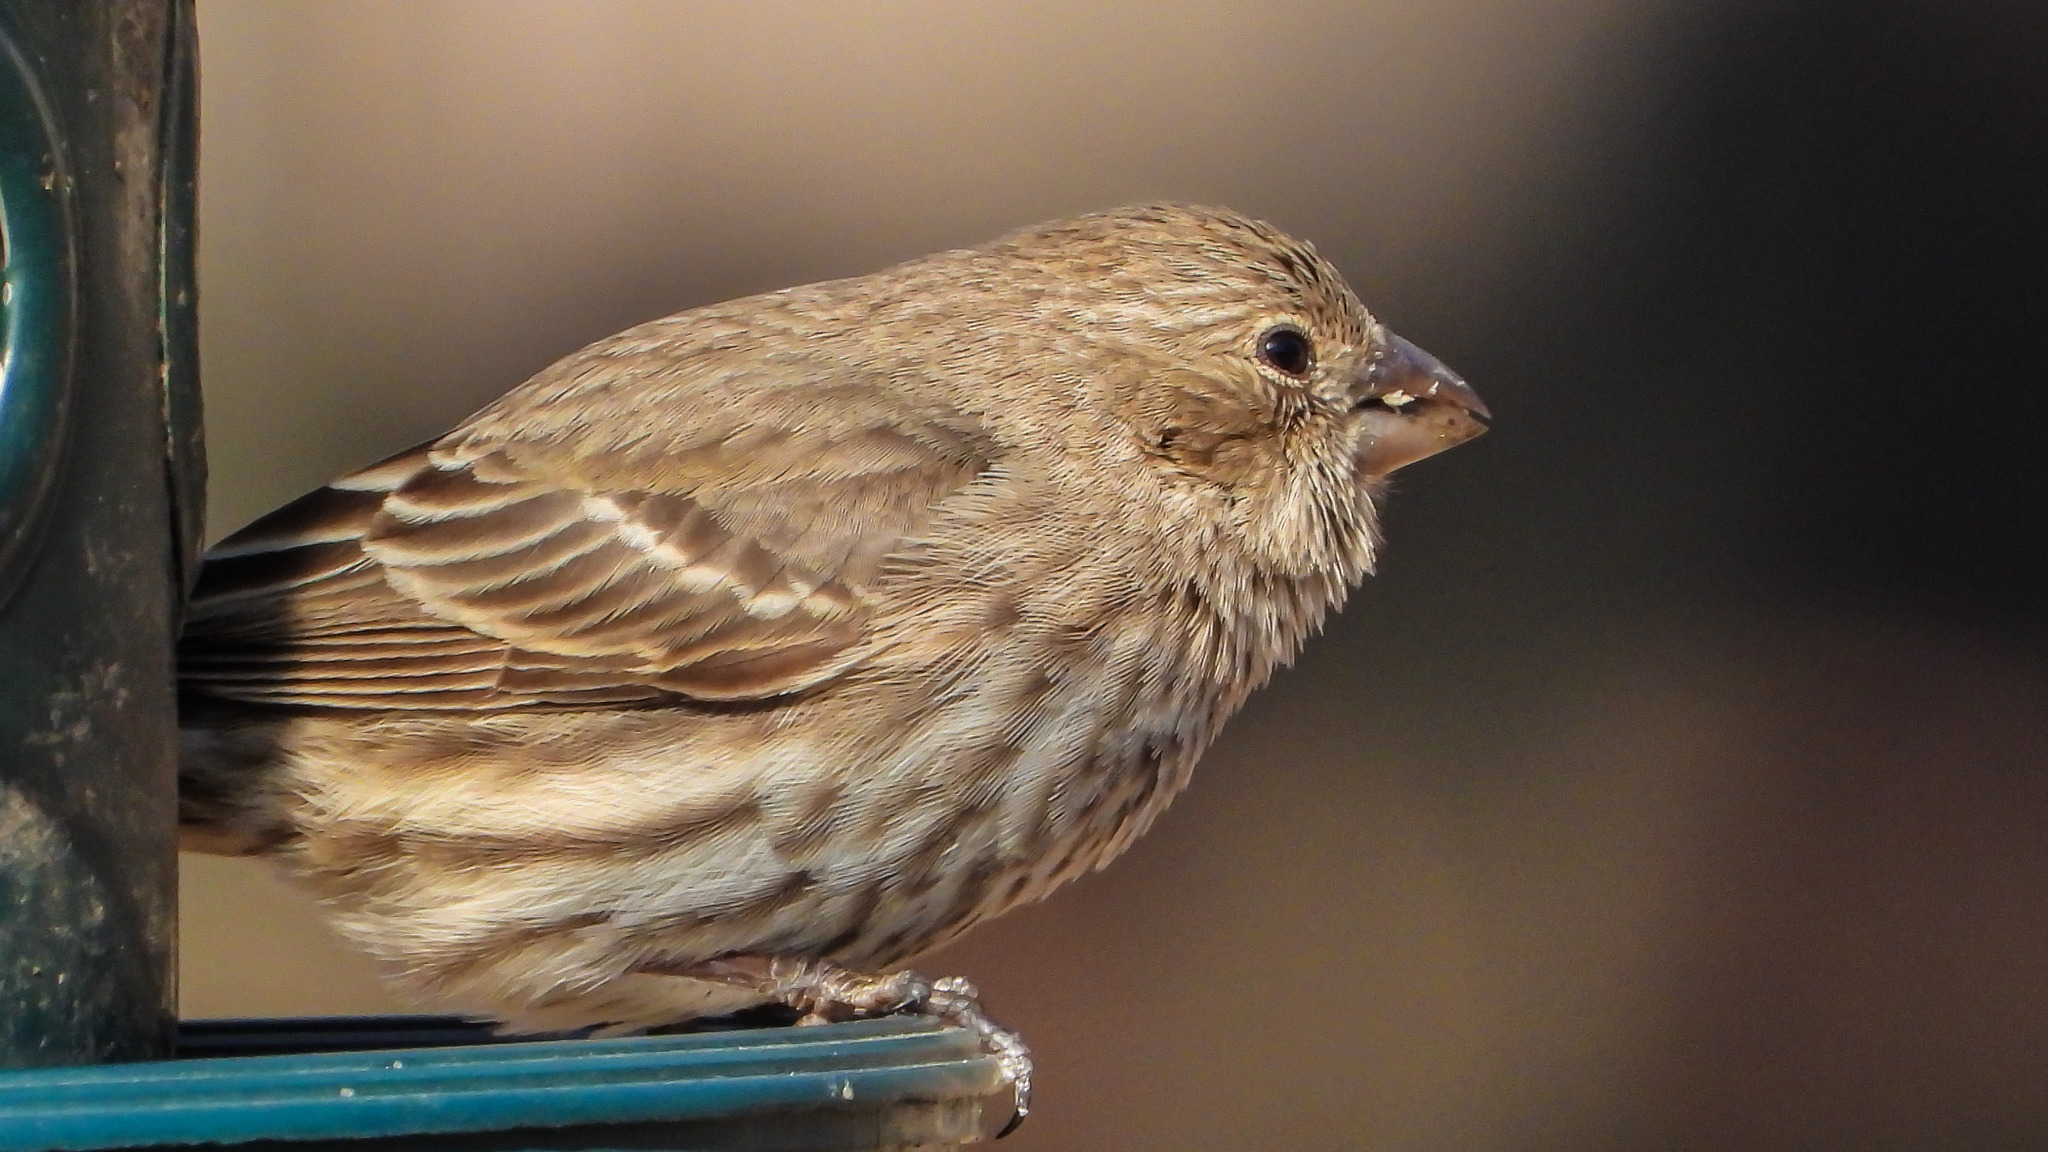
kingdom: Animalia
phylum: Chordata
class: Aves
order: Passeriformes
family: Fringillidae
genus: Haemorhous
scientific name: Haemorhous mexicanus
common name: House finch
